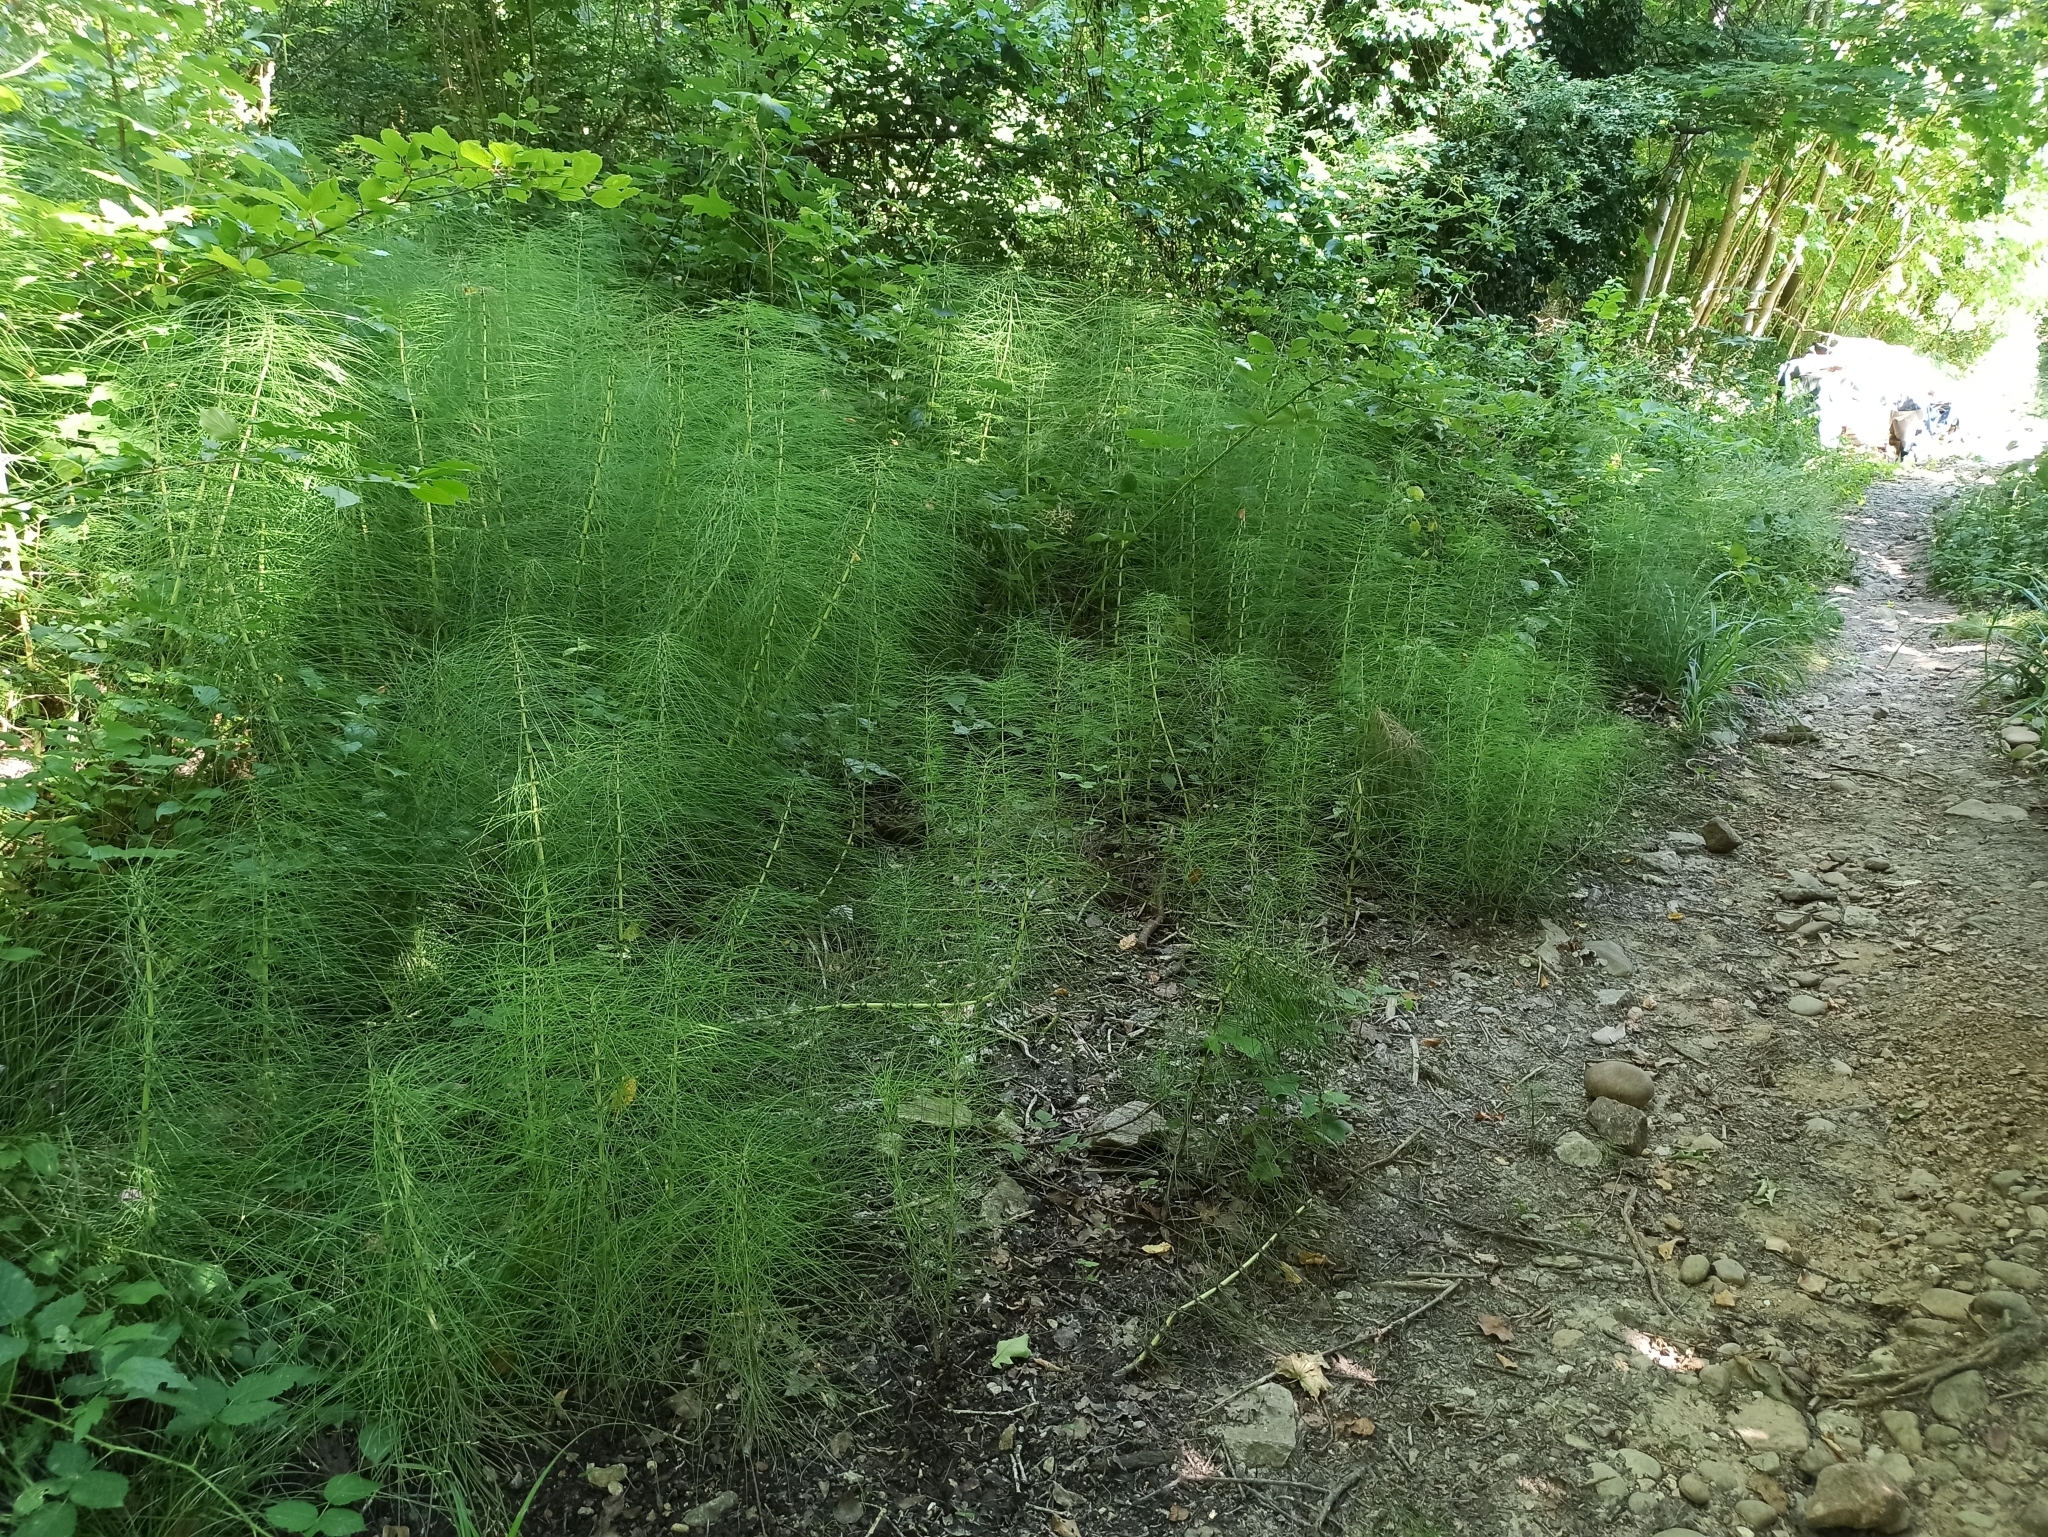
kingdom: Plantae
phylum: Tracheophyta
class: Polypodiopsida
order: Equisetales
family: Equisetaceae
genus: Equisetum
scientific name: Equisetum telmateia
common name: Great horsetail
